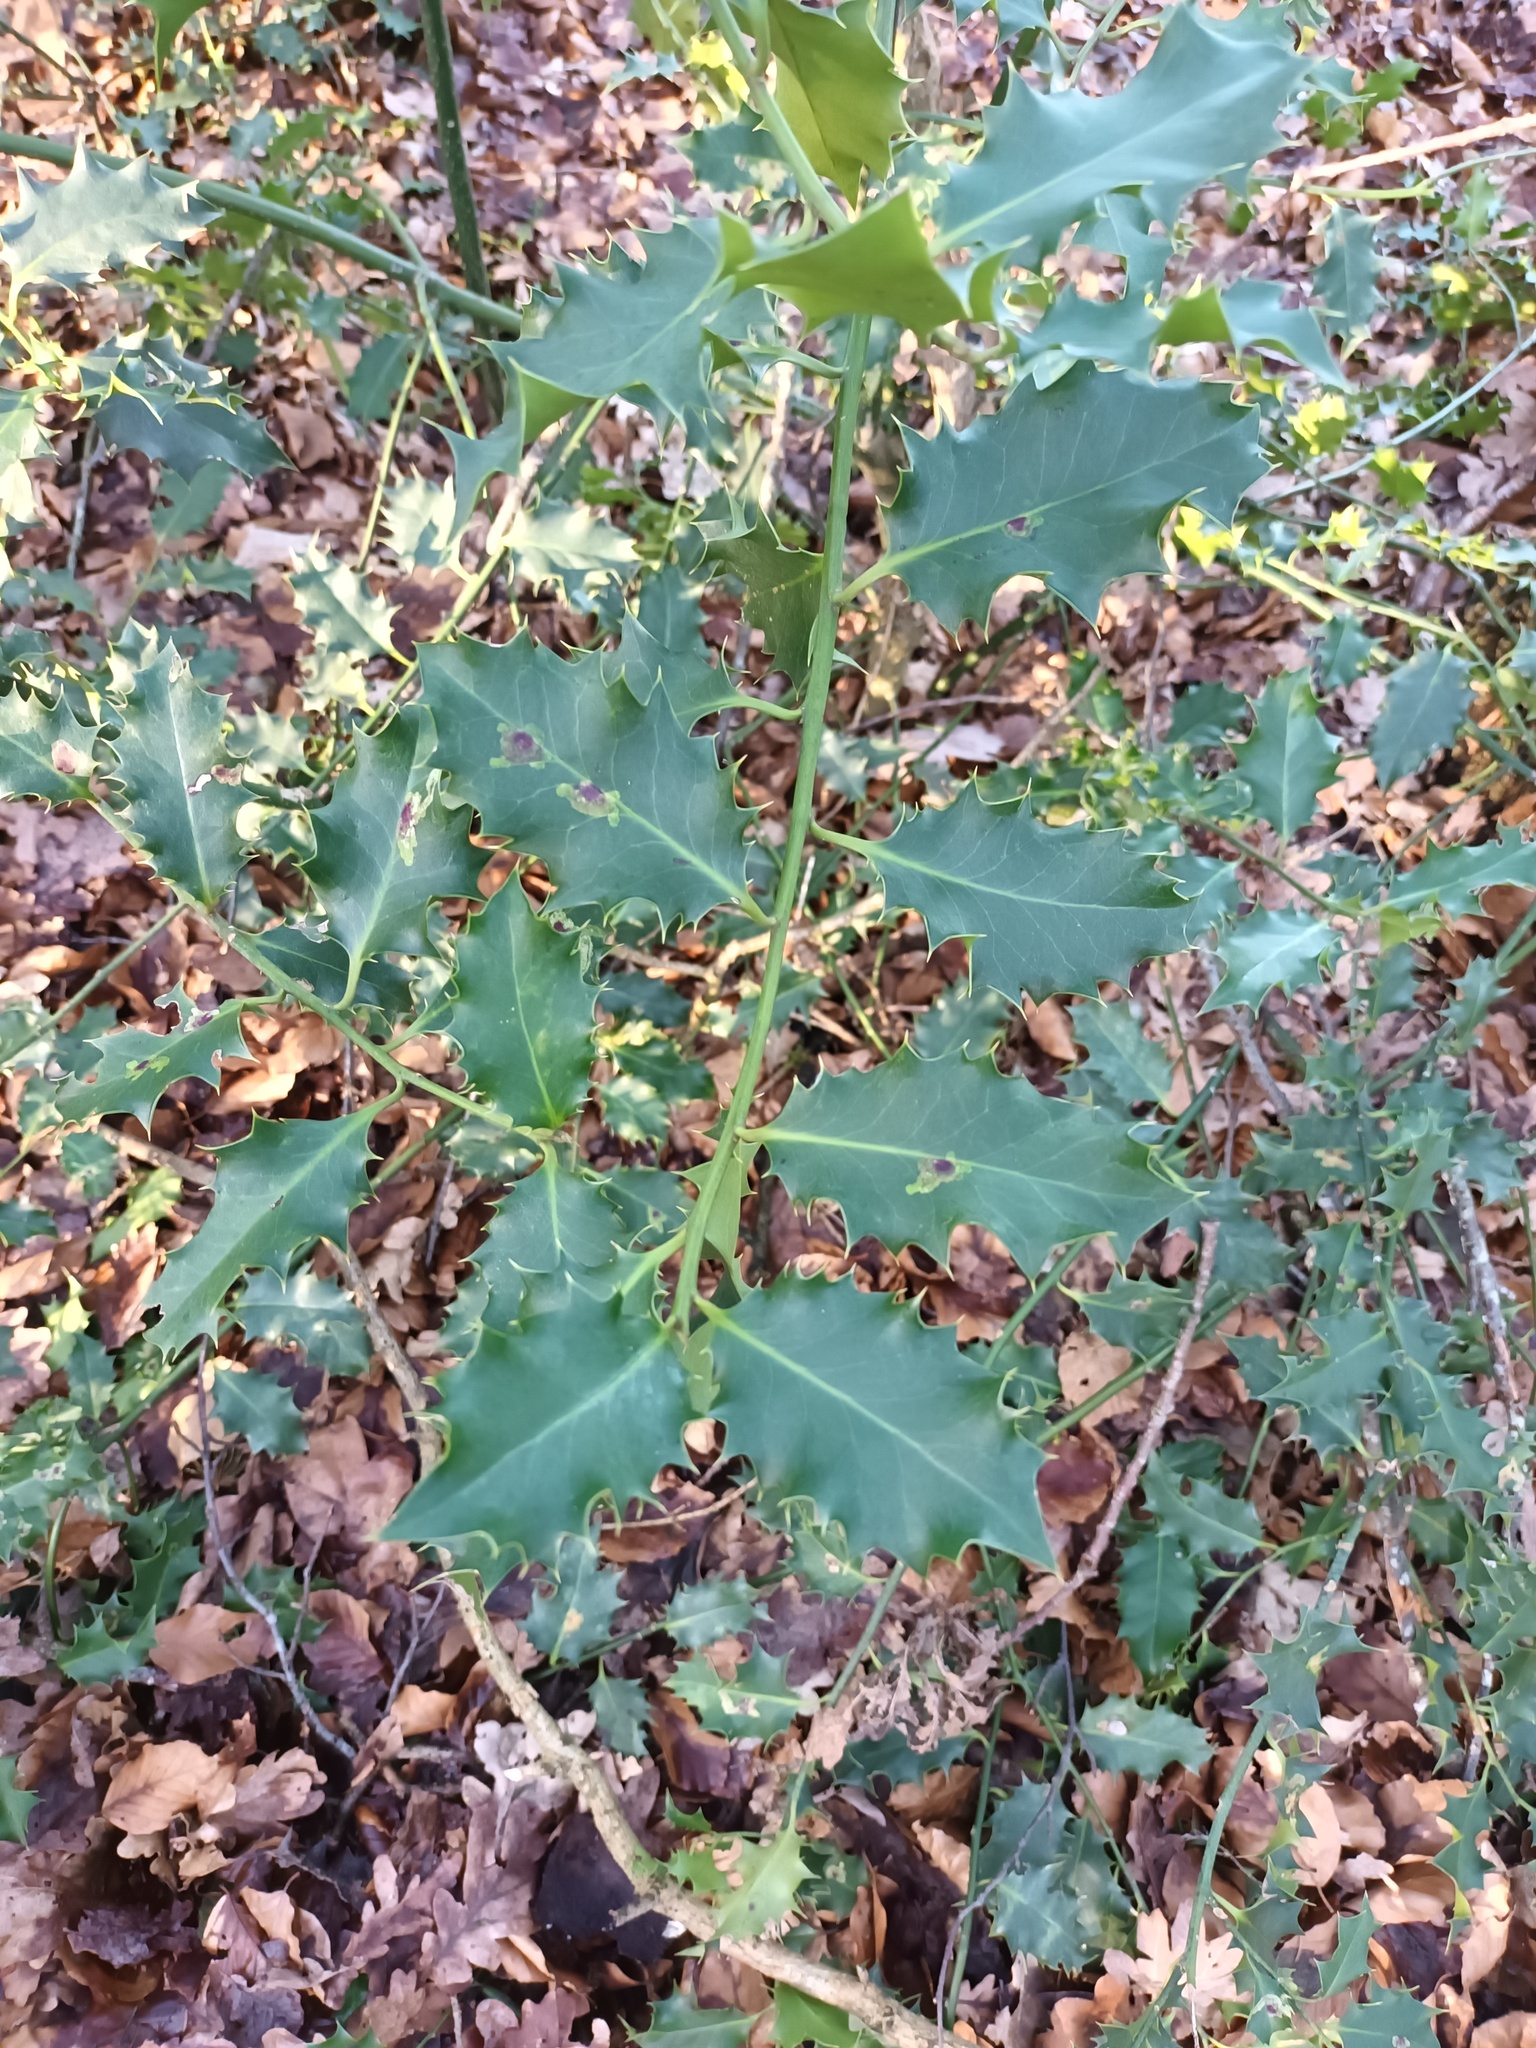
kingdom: Plantae
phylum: Tracheophyta
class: Magnoliopsida
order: Aquifoliales
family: Aquifoliaceae
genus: Ilex
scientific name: Ilex aquifolium
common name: English holly
